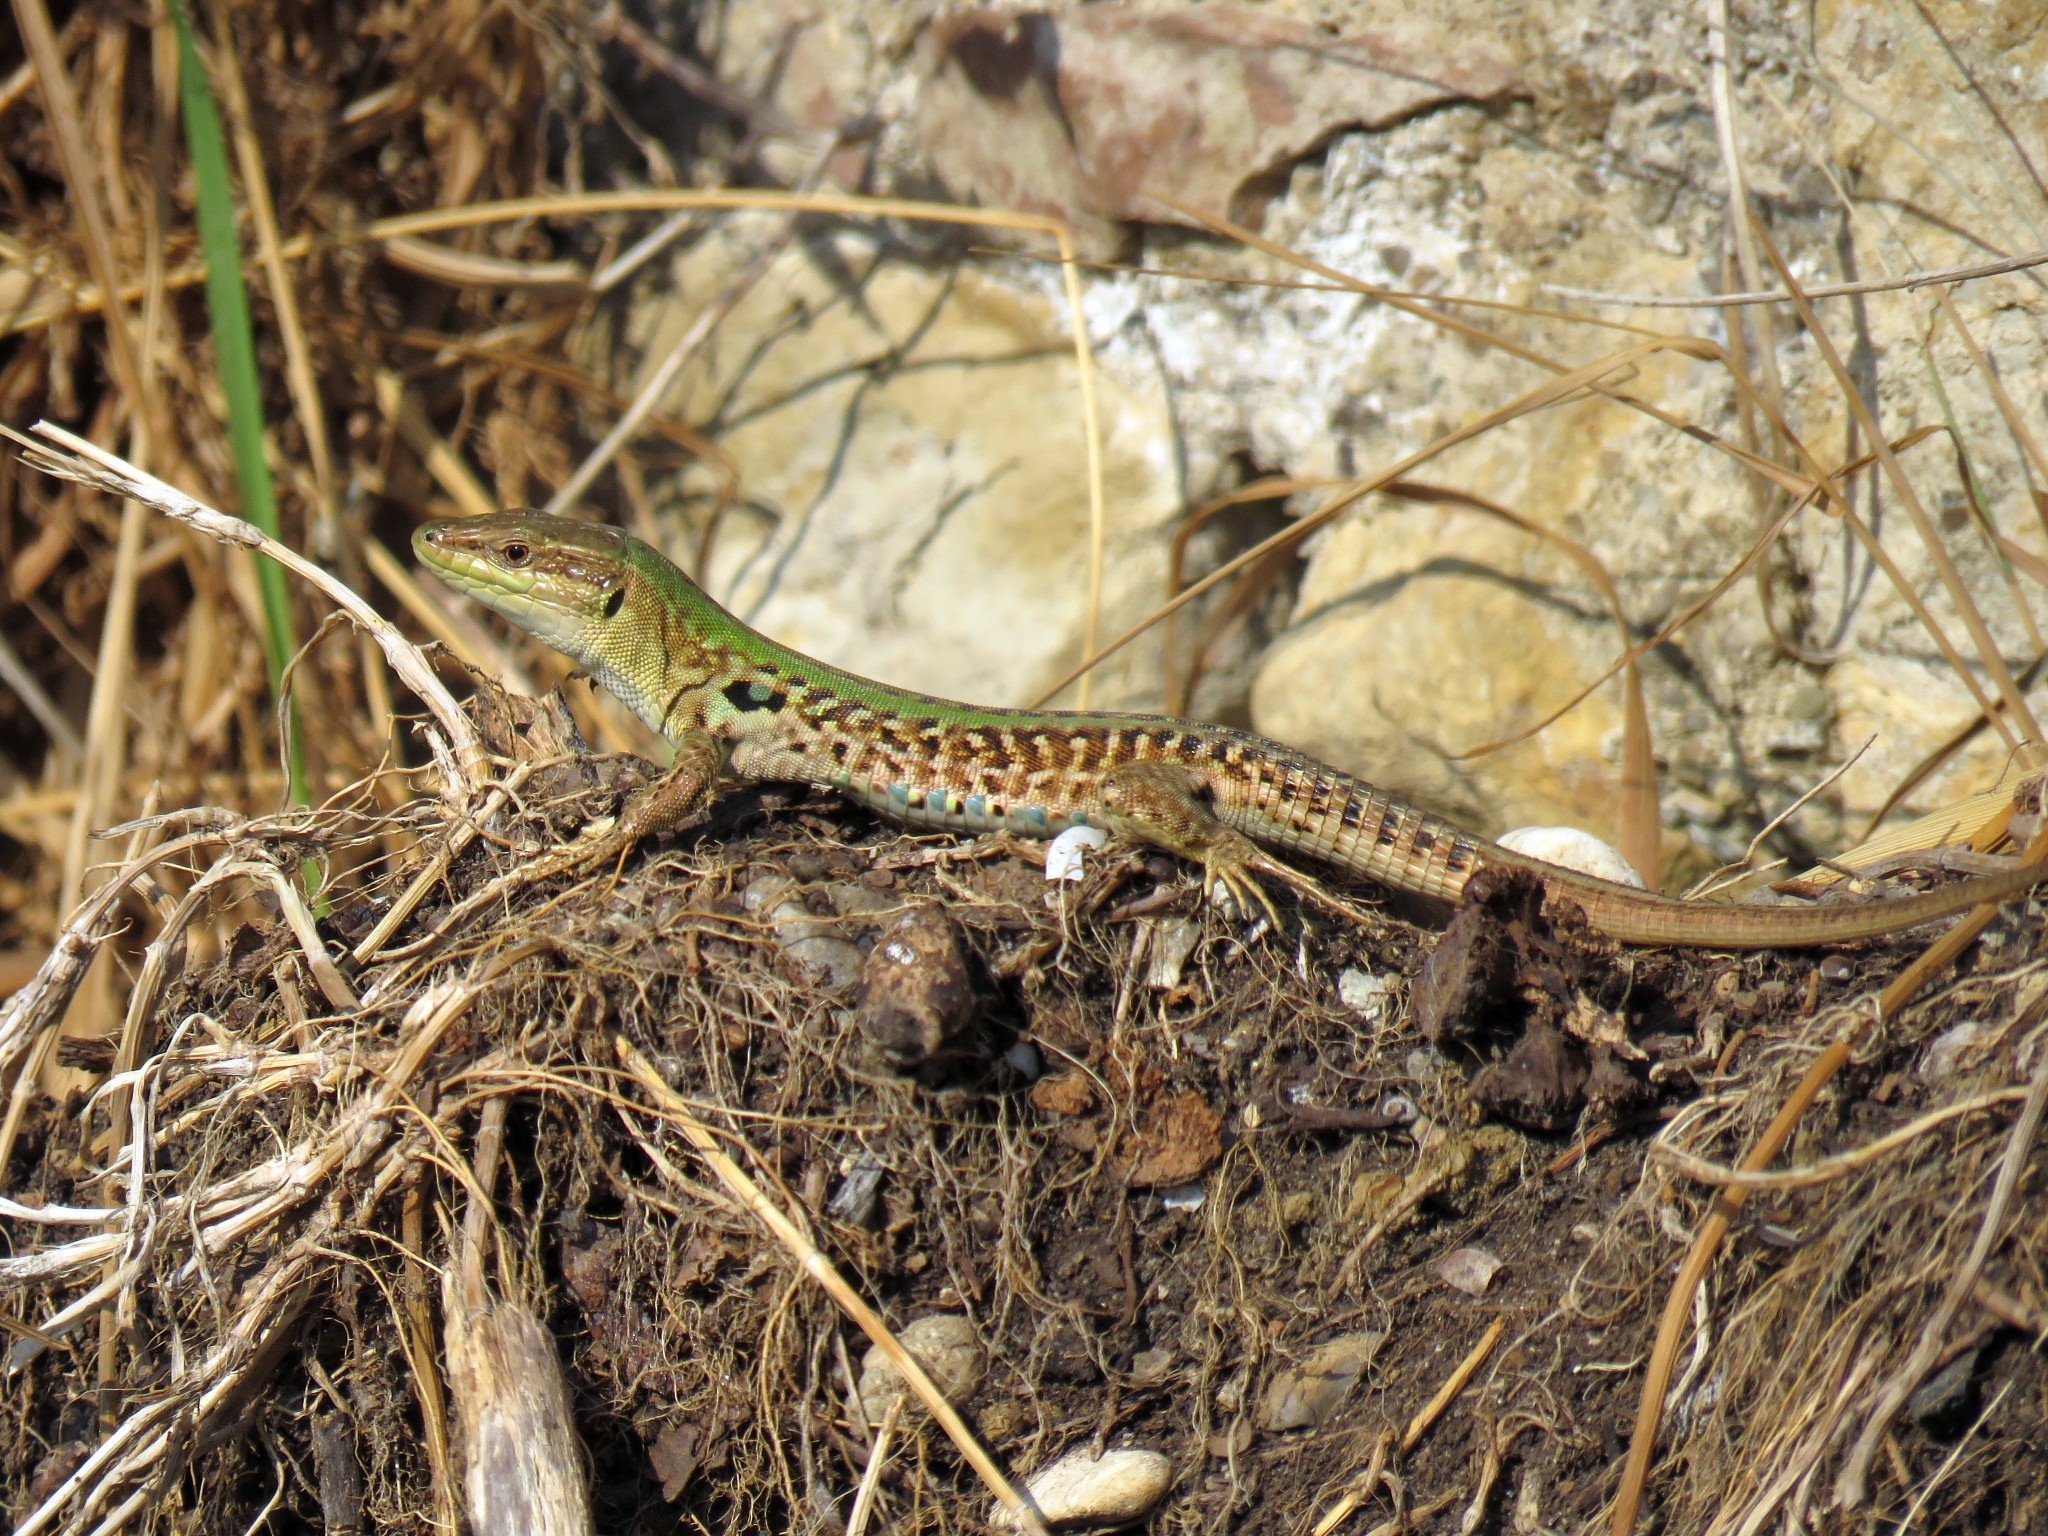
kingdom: Animalia
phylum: Chordata
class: Squamata
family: Lacertidae
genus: Podarcis
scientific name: Podarcis siculus
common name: Italian wall lizard
